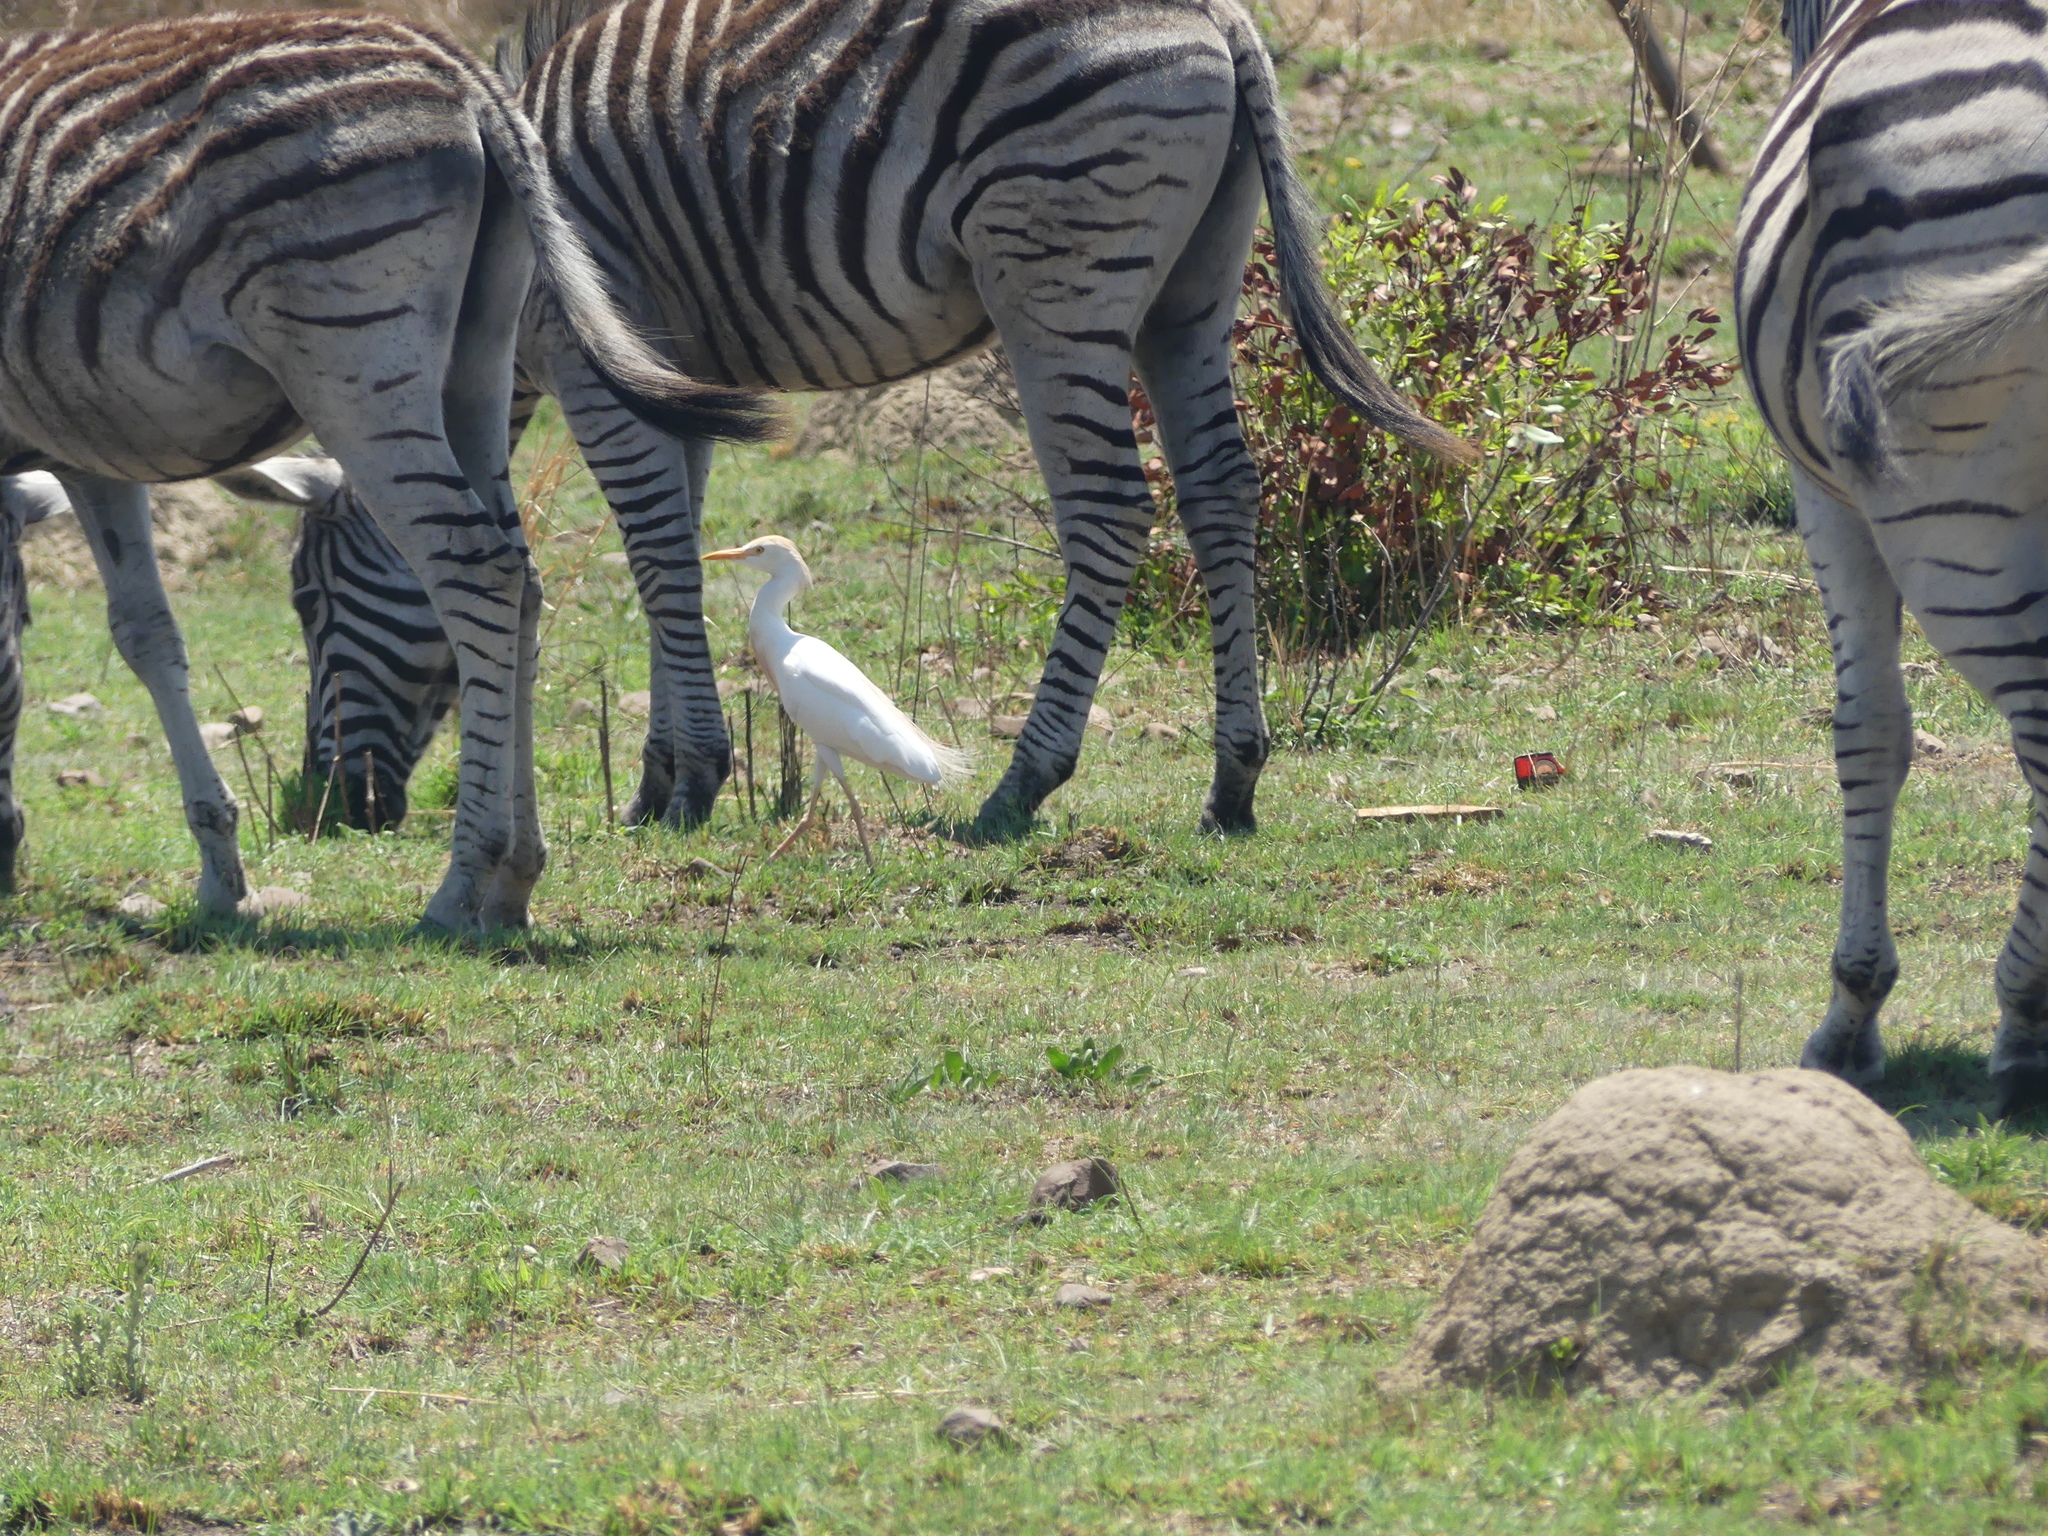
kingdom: Animalia
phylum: Chordata
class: Aves
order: Pelecaniformes
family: Ardeidae
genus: Bubulcus
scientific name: Bubulcus ibis
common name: Cattle egret
